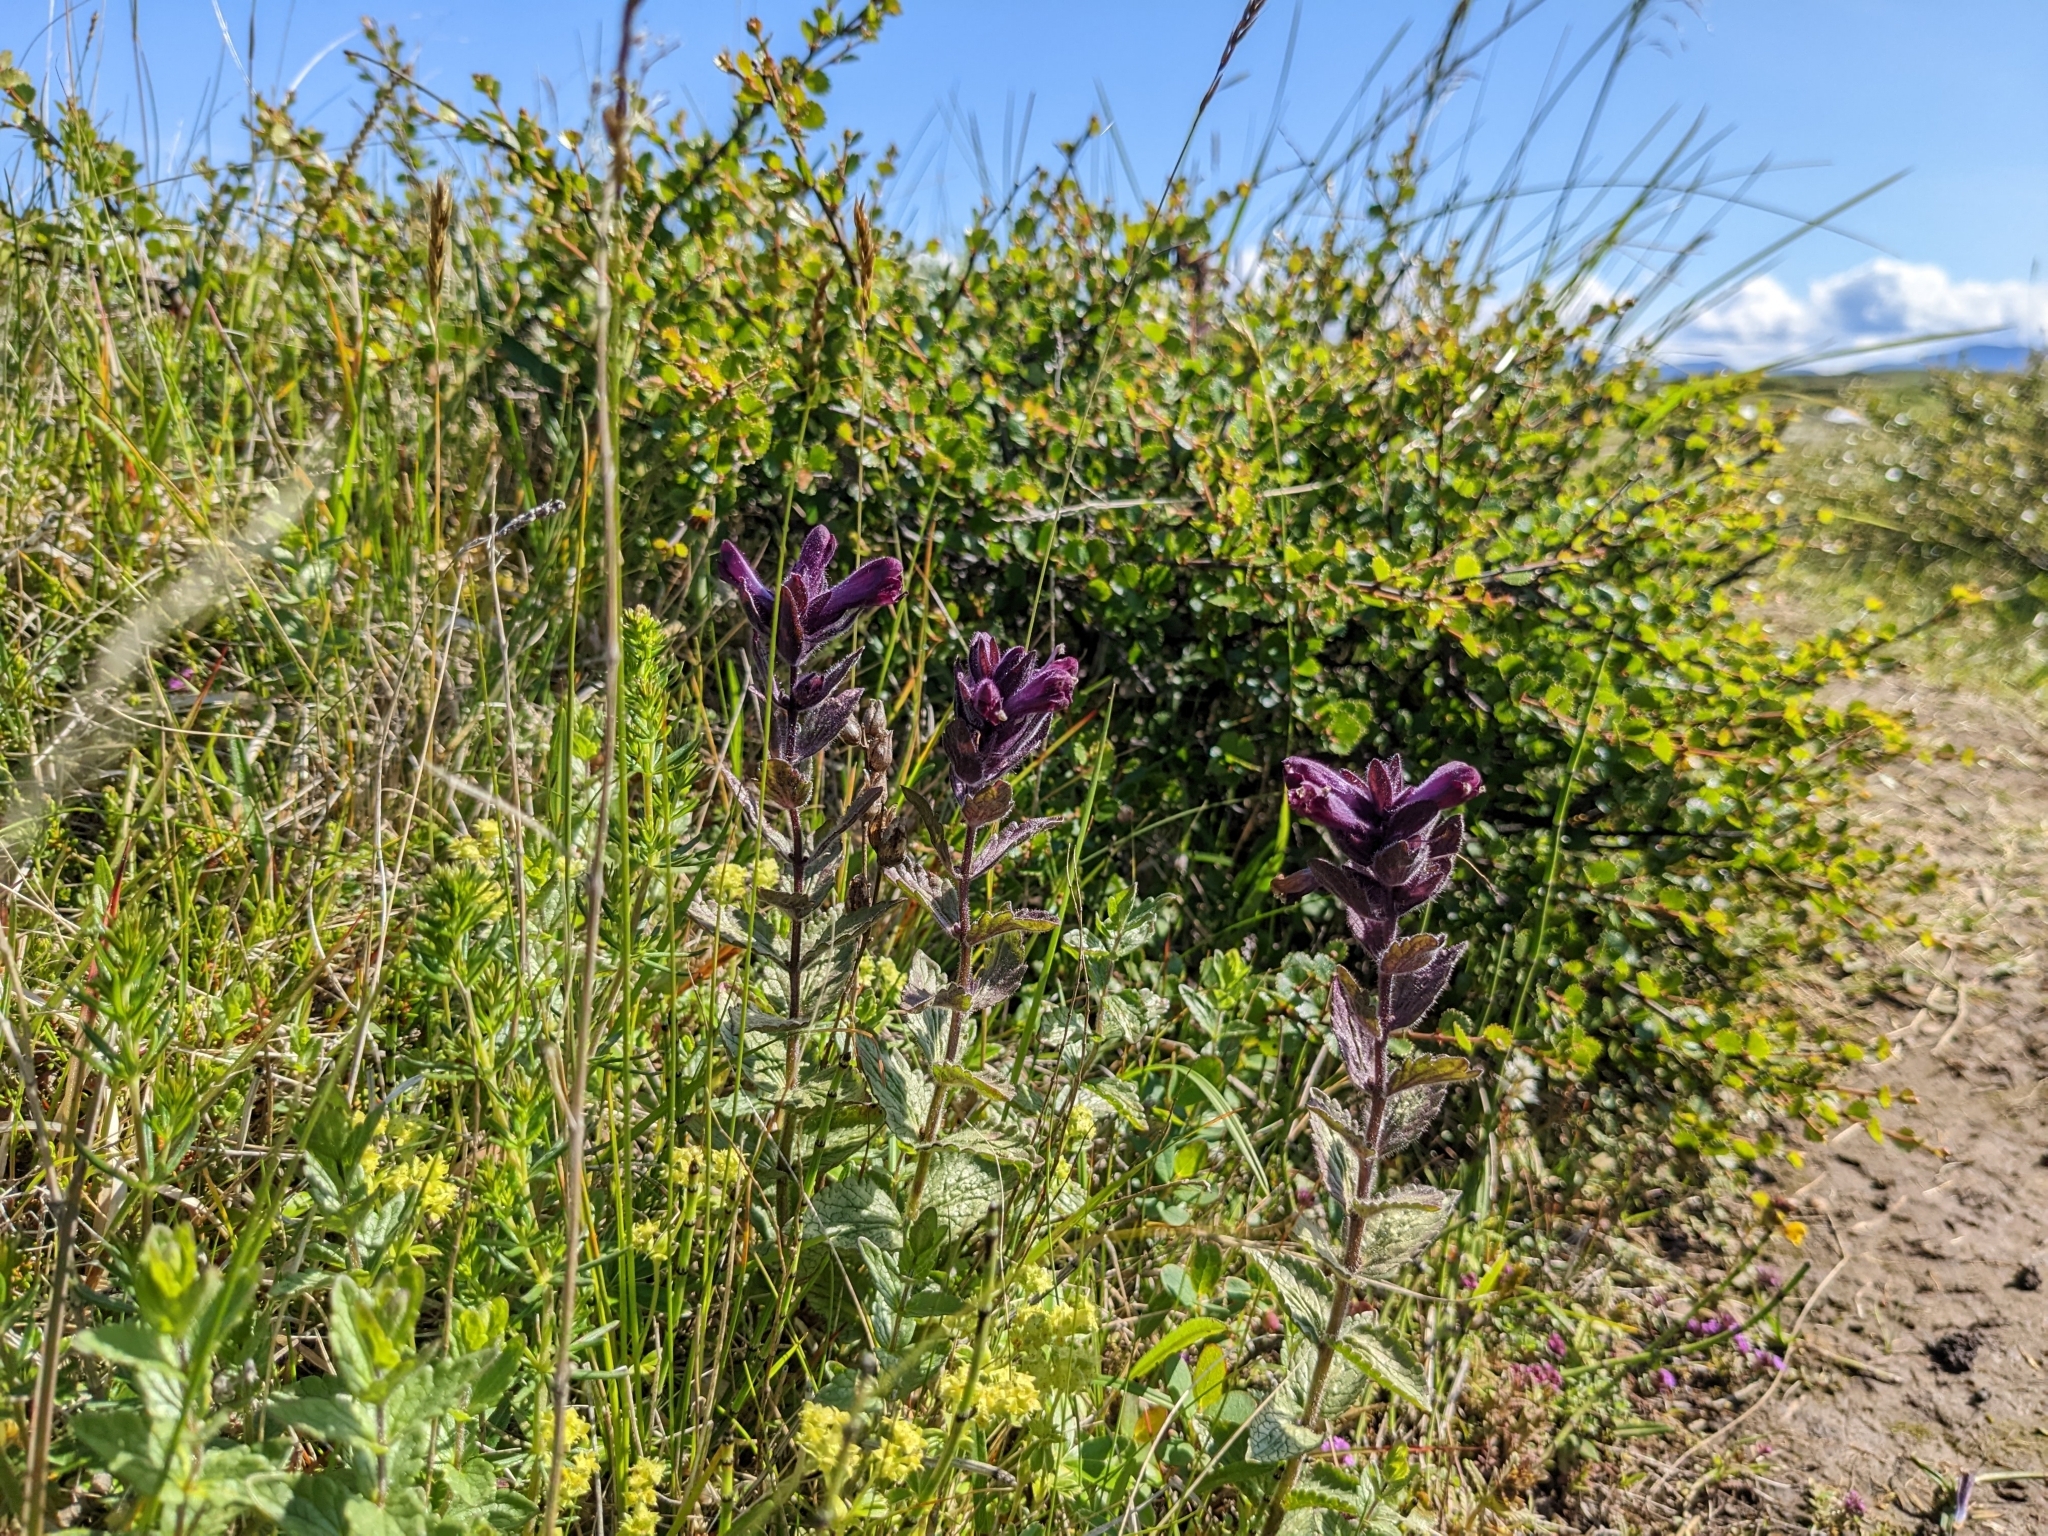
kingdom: Plantae
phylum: Tracheophyta
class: Magnoliopsida
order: Lamiales
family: Orobanchaceae
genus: Bartsia
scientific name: Bartsia alpina
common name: Alpine bartsia
